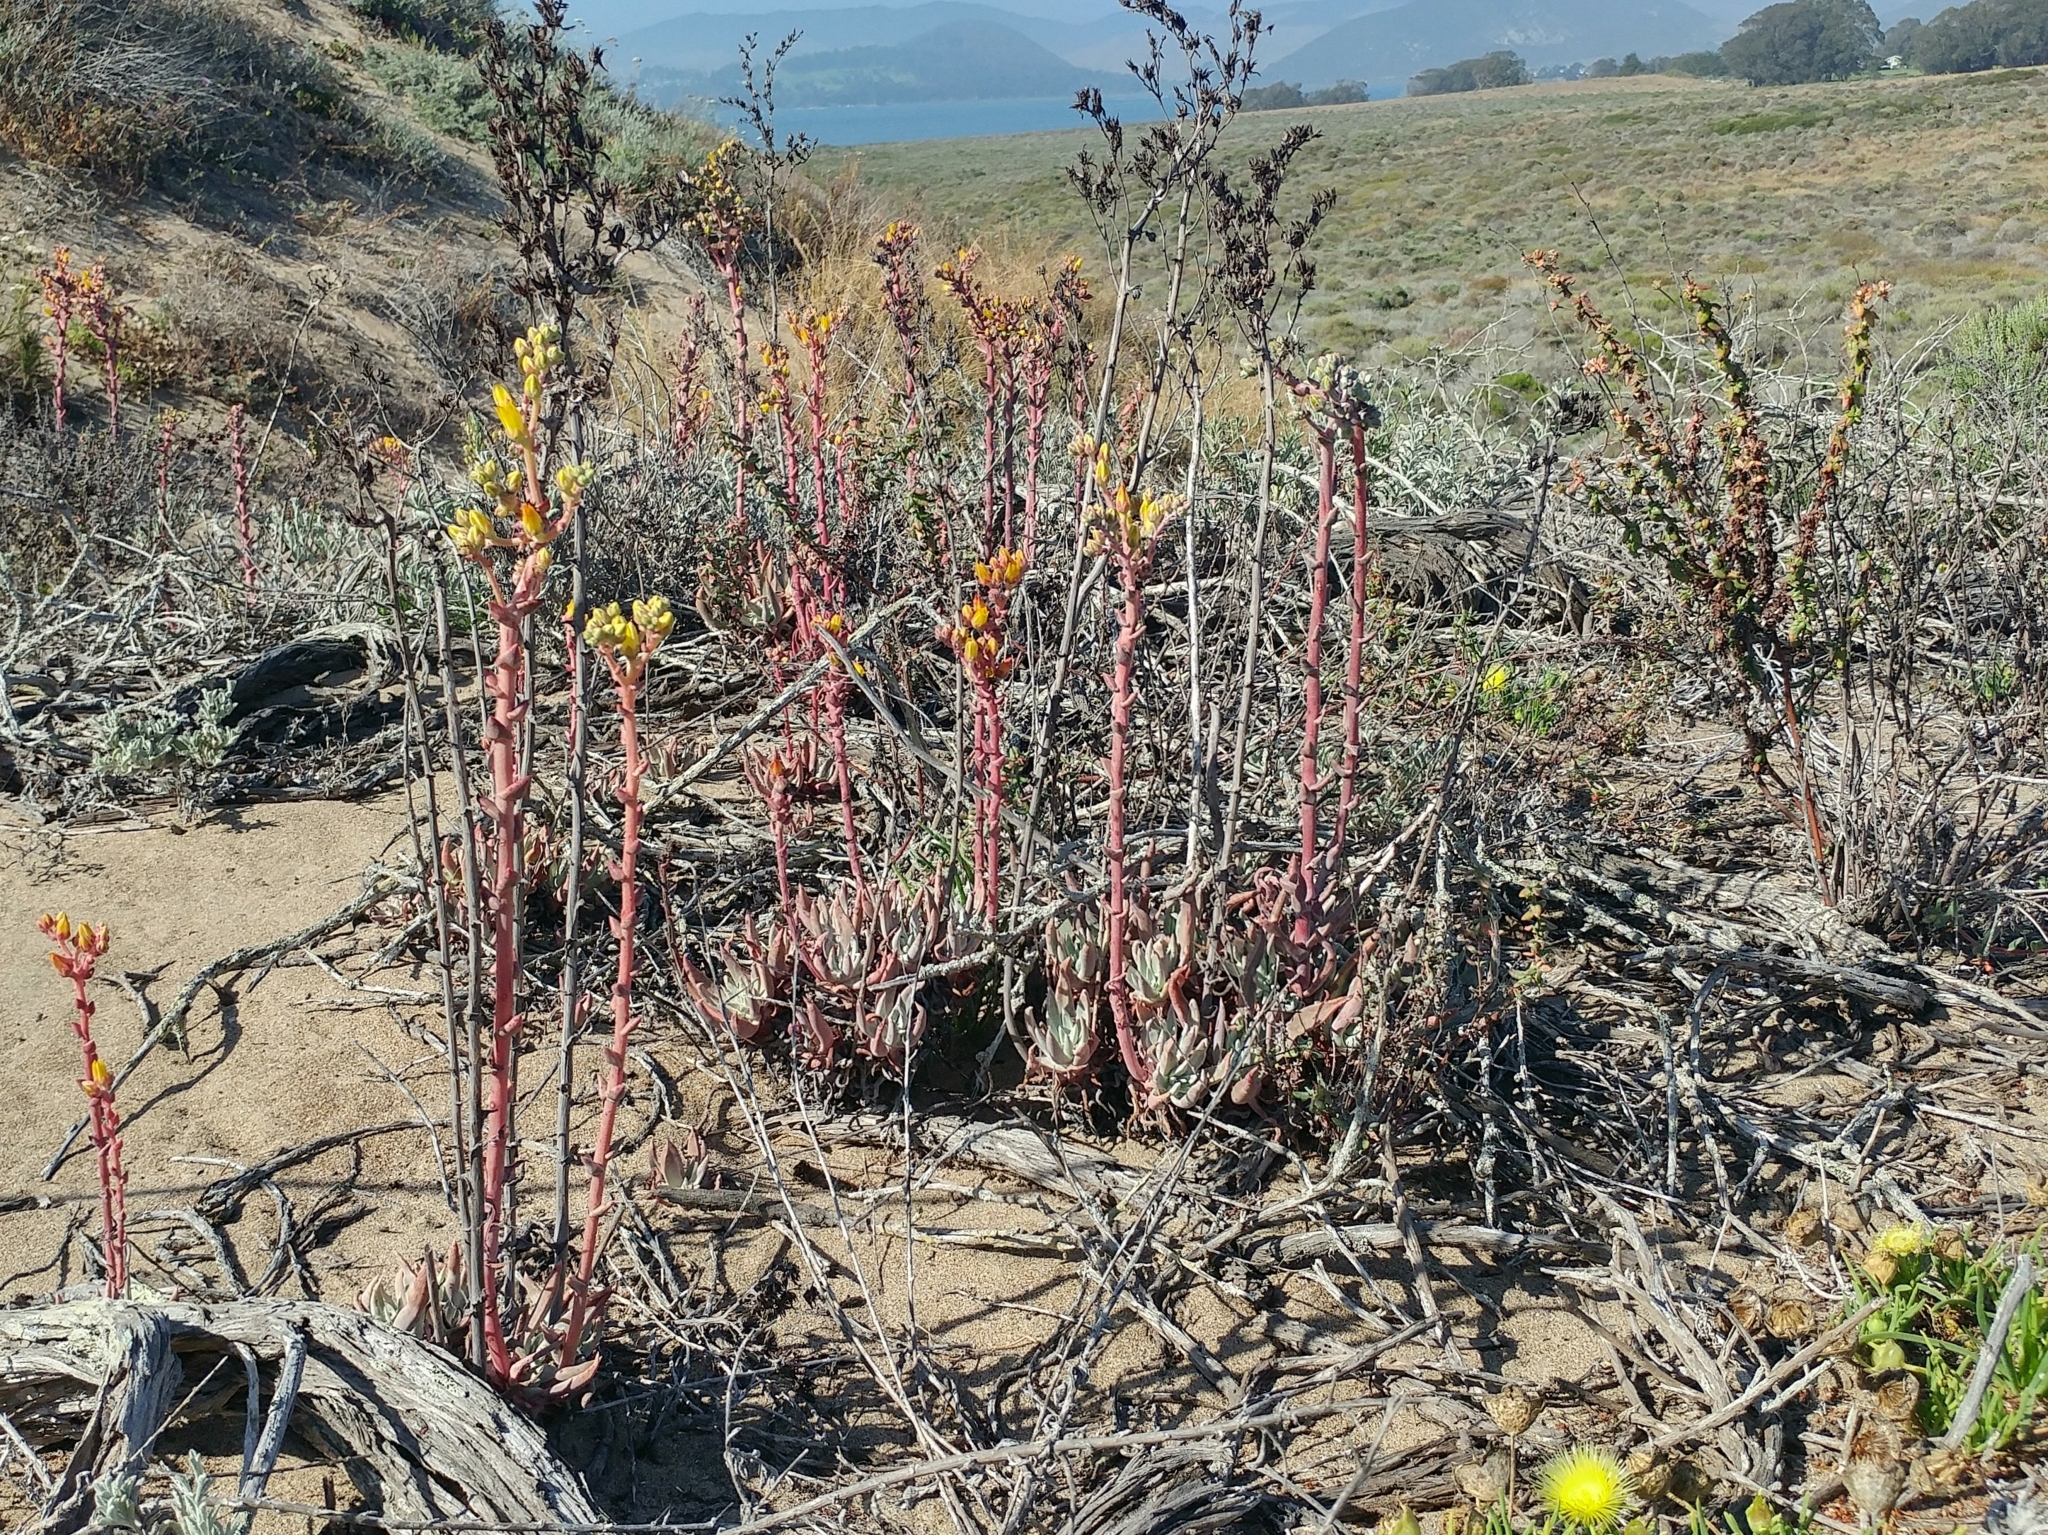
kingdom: Plantae
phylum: Tracheophyta
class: Magnoliopsida
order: Saxifragales
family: Crassulaceae
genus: Dudleya
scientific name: Dudleya caespitosa
